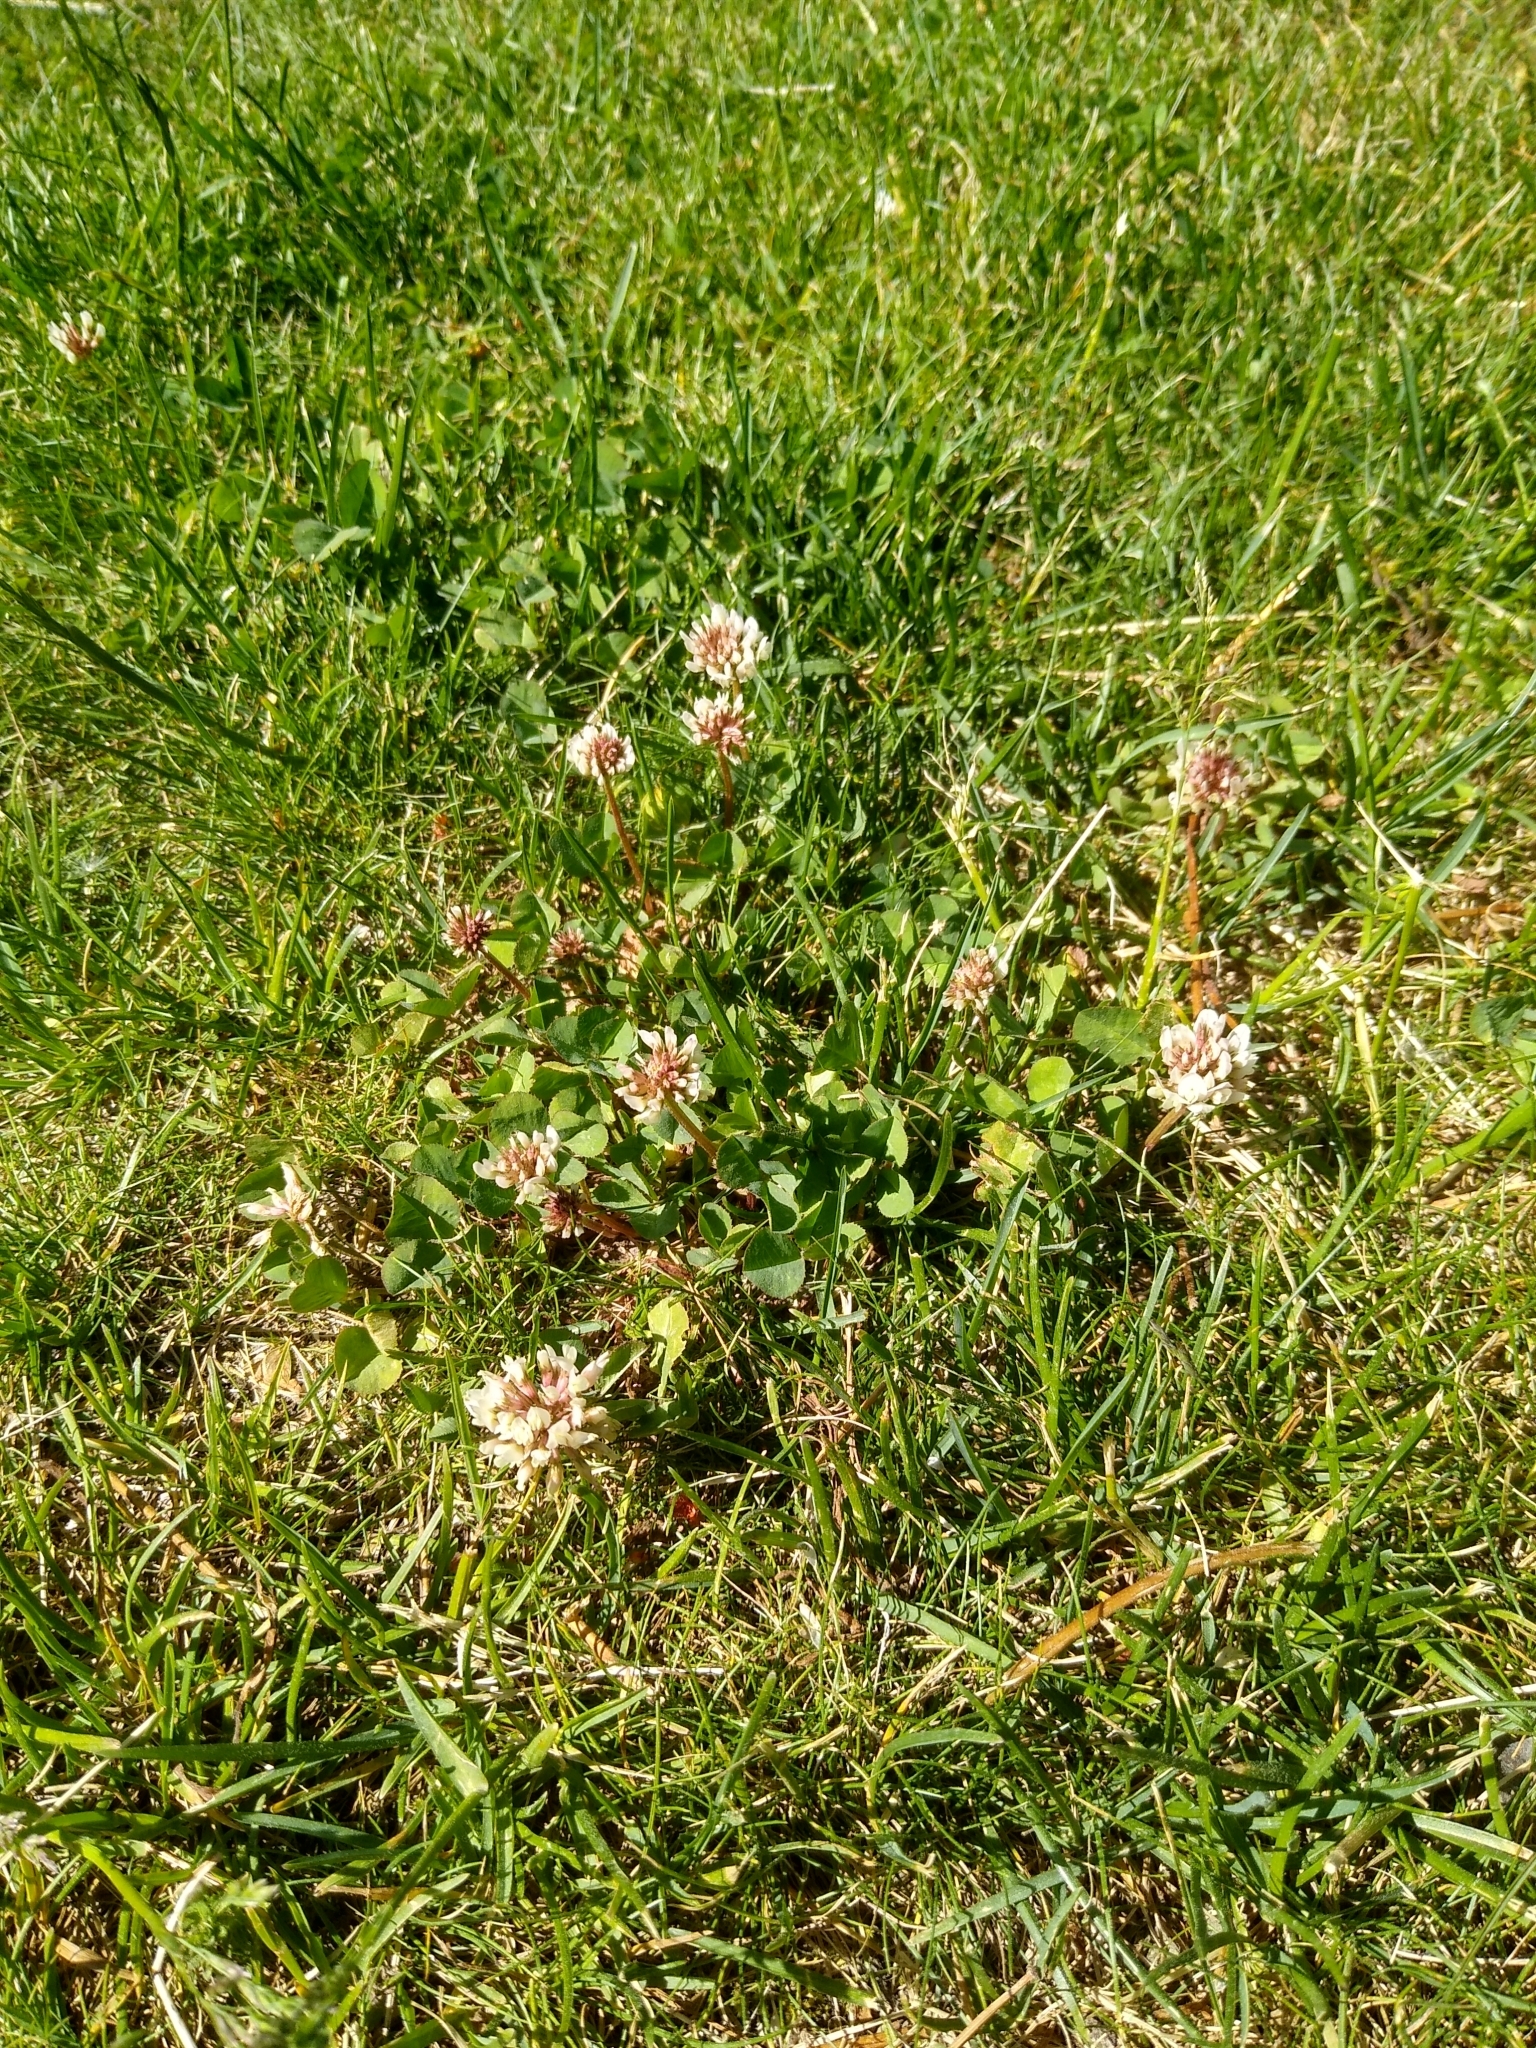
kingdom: Plantae
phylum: Tracheophyta
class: Magnoliopsida
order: Fabales
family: Fabaceae
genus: Trifolium
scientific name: Trifolium repens
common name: White clover
